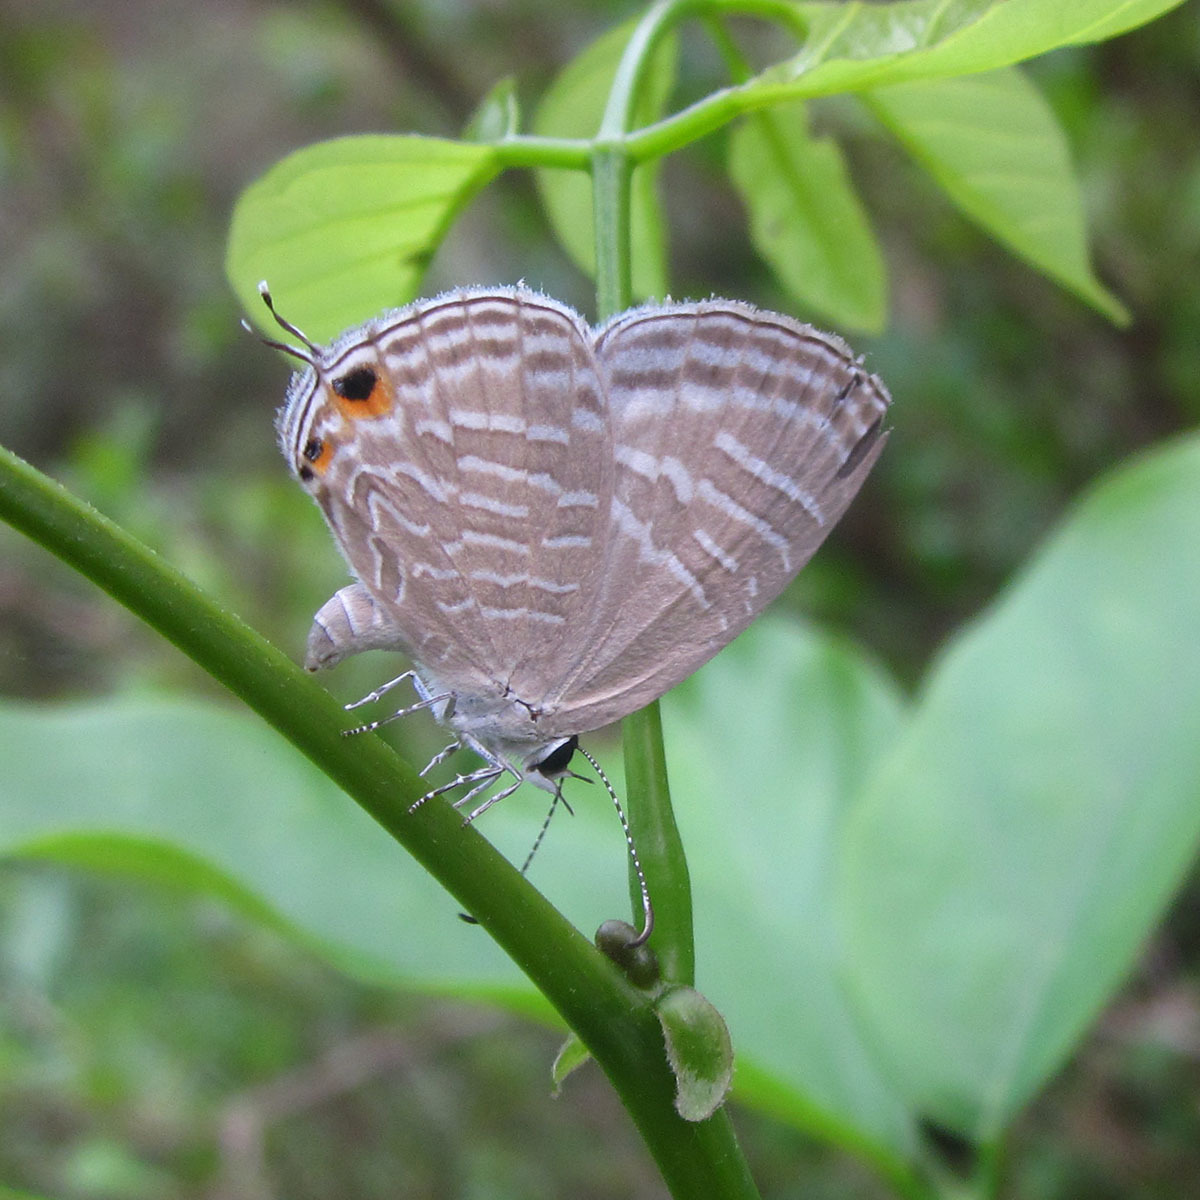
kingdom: Animalia
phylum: Arthropoda
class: Insecta
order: Lepidoptera
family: Lycaenidae
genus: Jamides
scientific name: Jamides celeno
